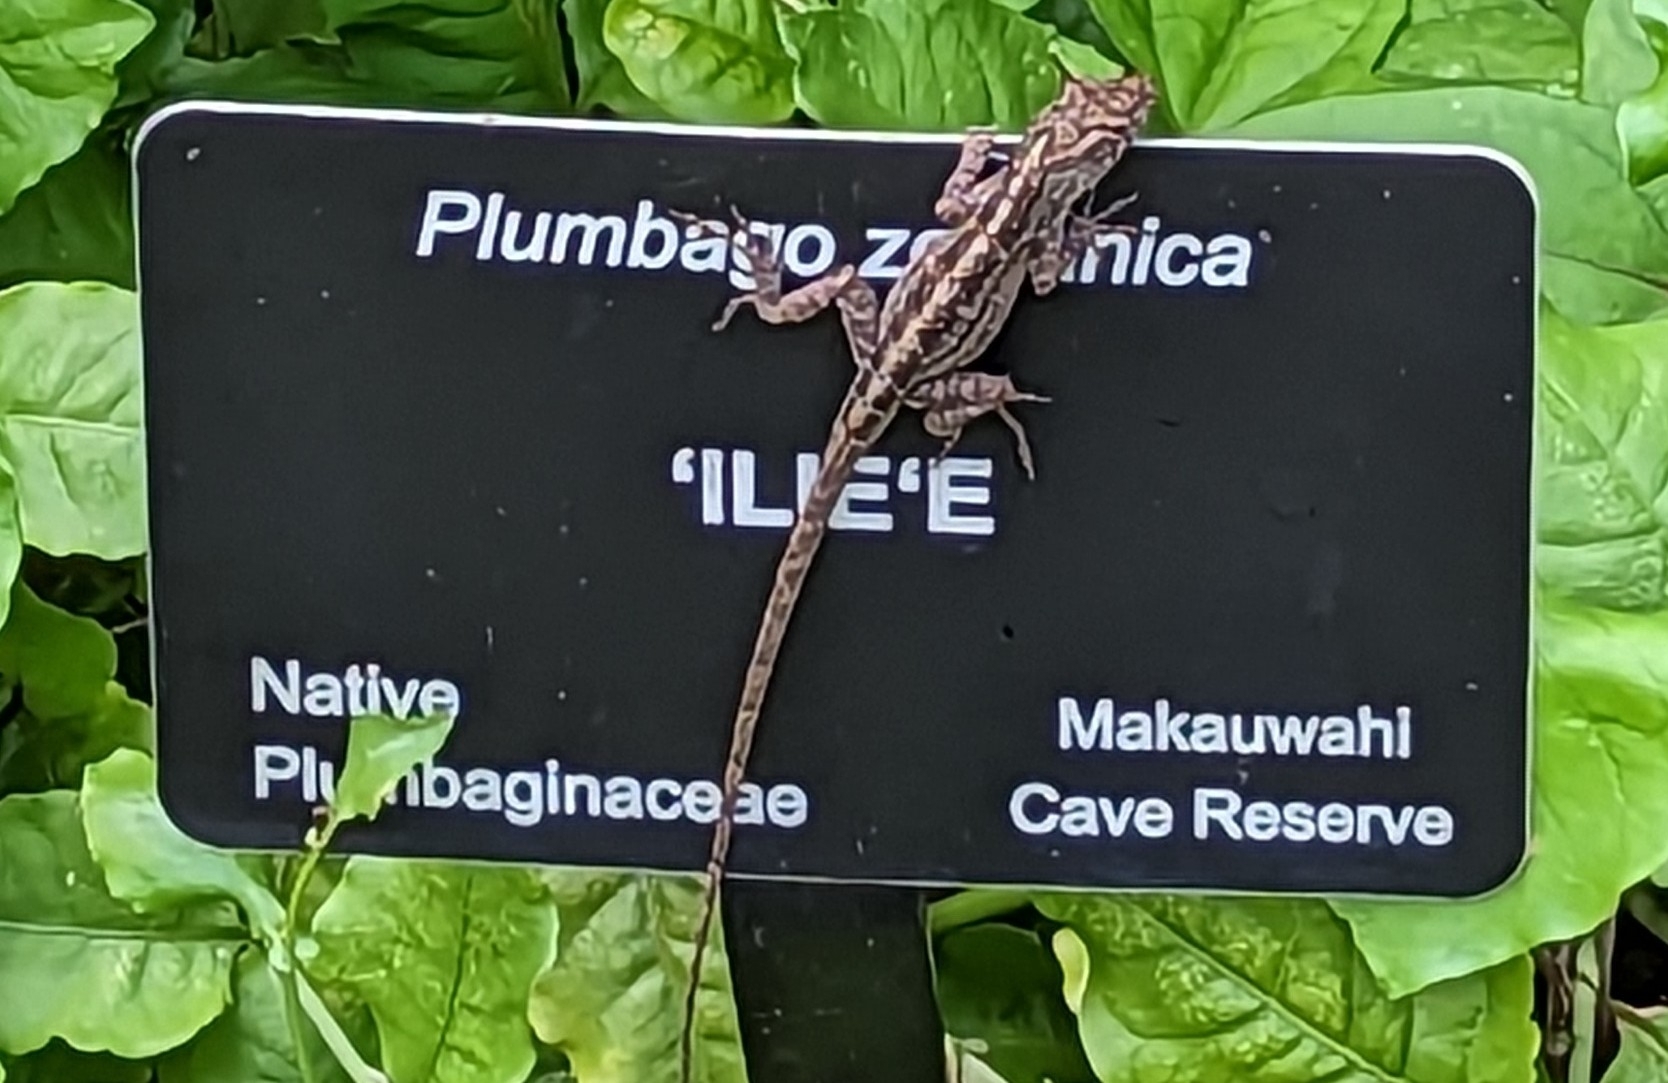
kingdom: Animalia
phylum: Chordata
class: Squamata
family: Dactyloidae
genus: Anolis
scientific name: Anolis sagrei
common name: Brown anole
